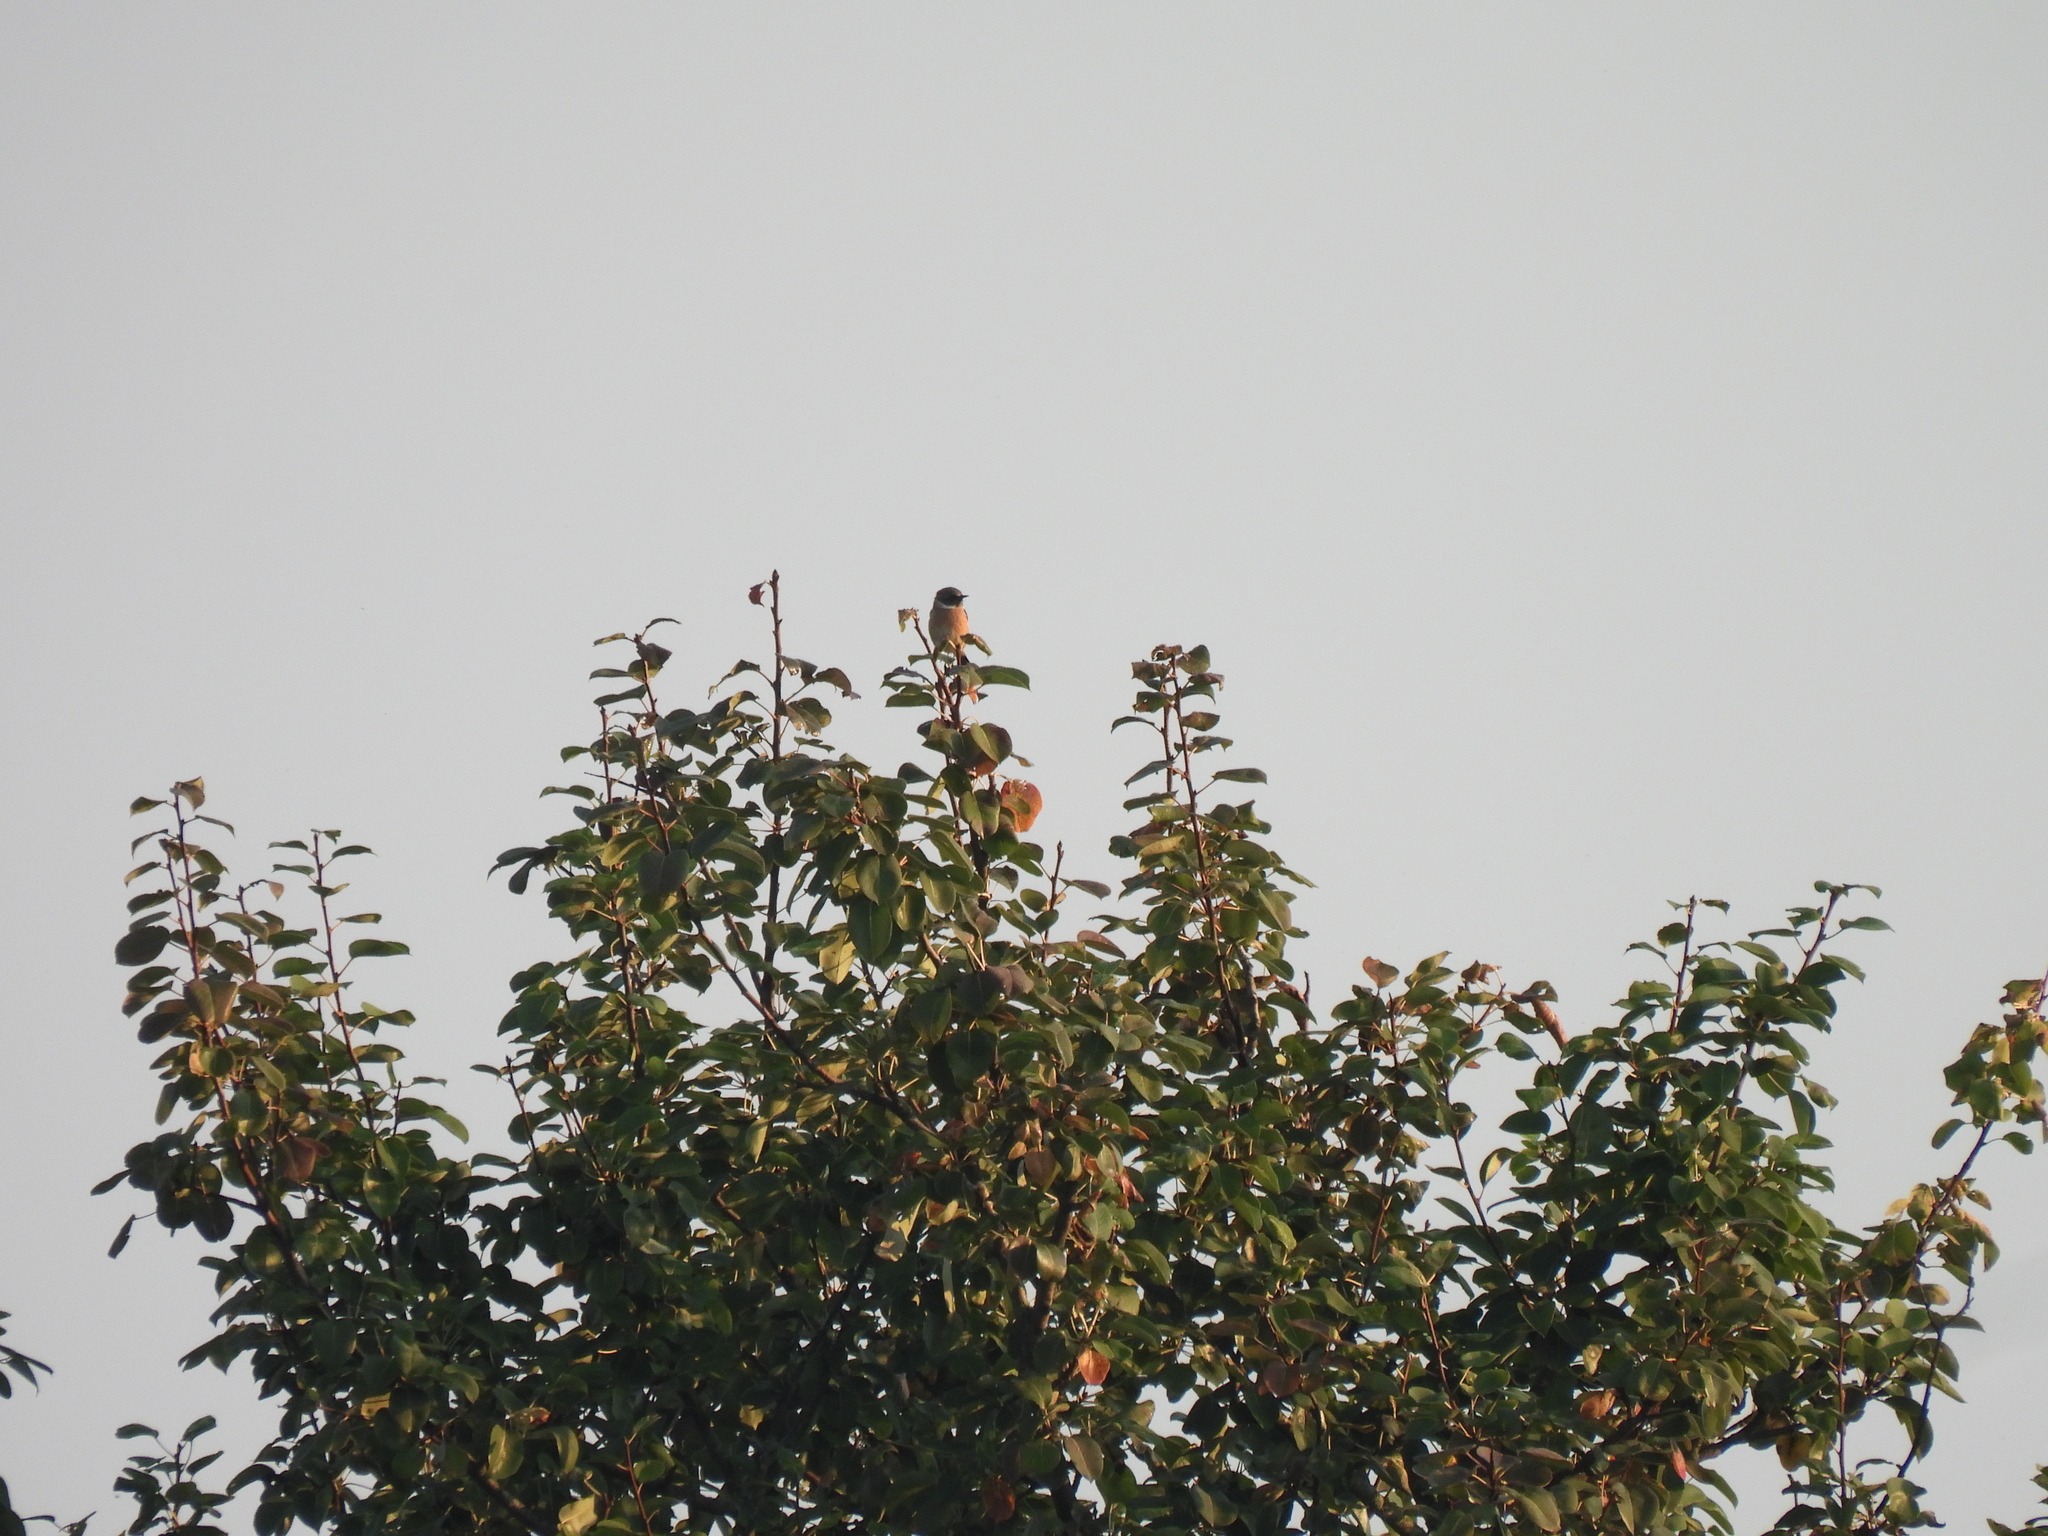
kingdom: Animalia
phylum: Chordata
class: Aves
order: Passeriformes
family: Muscicapidae
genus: Saxicola
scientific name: Saxicola rubicola
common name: European stonechat
